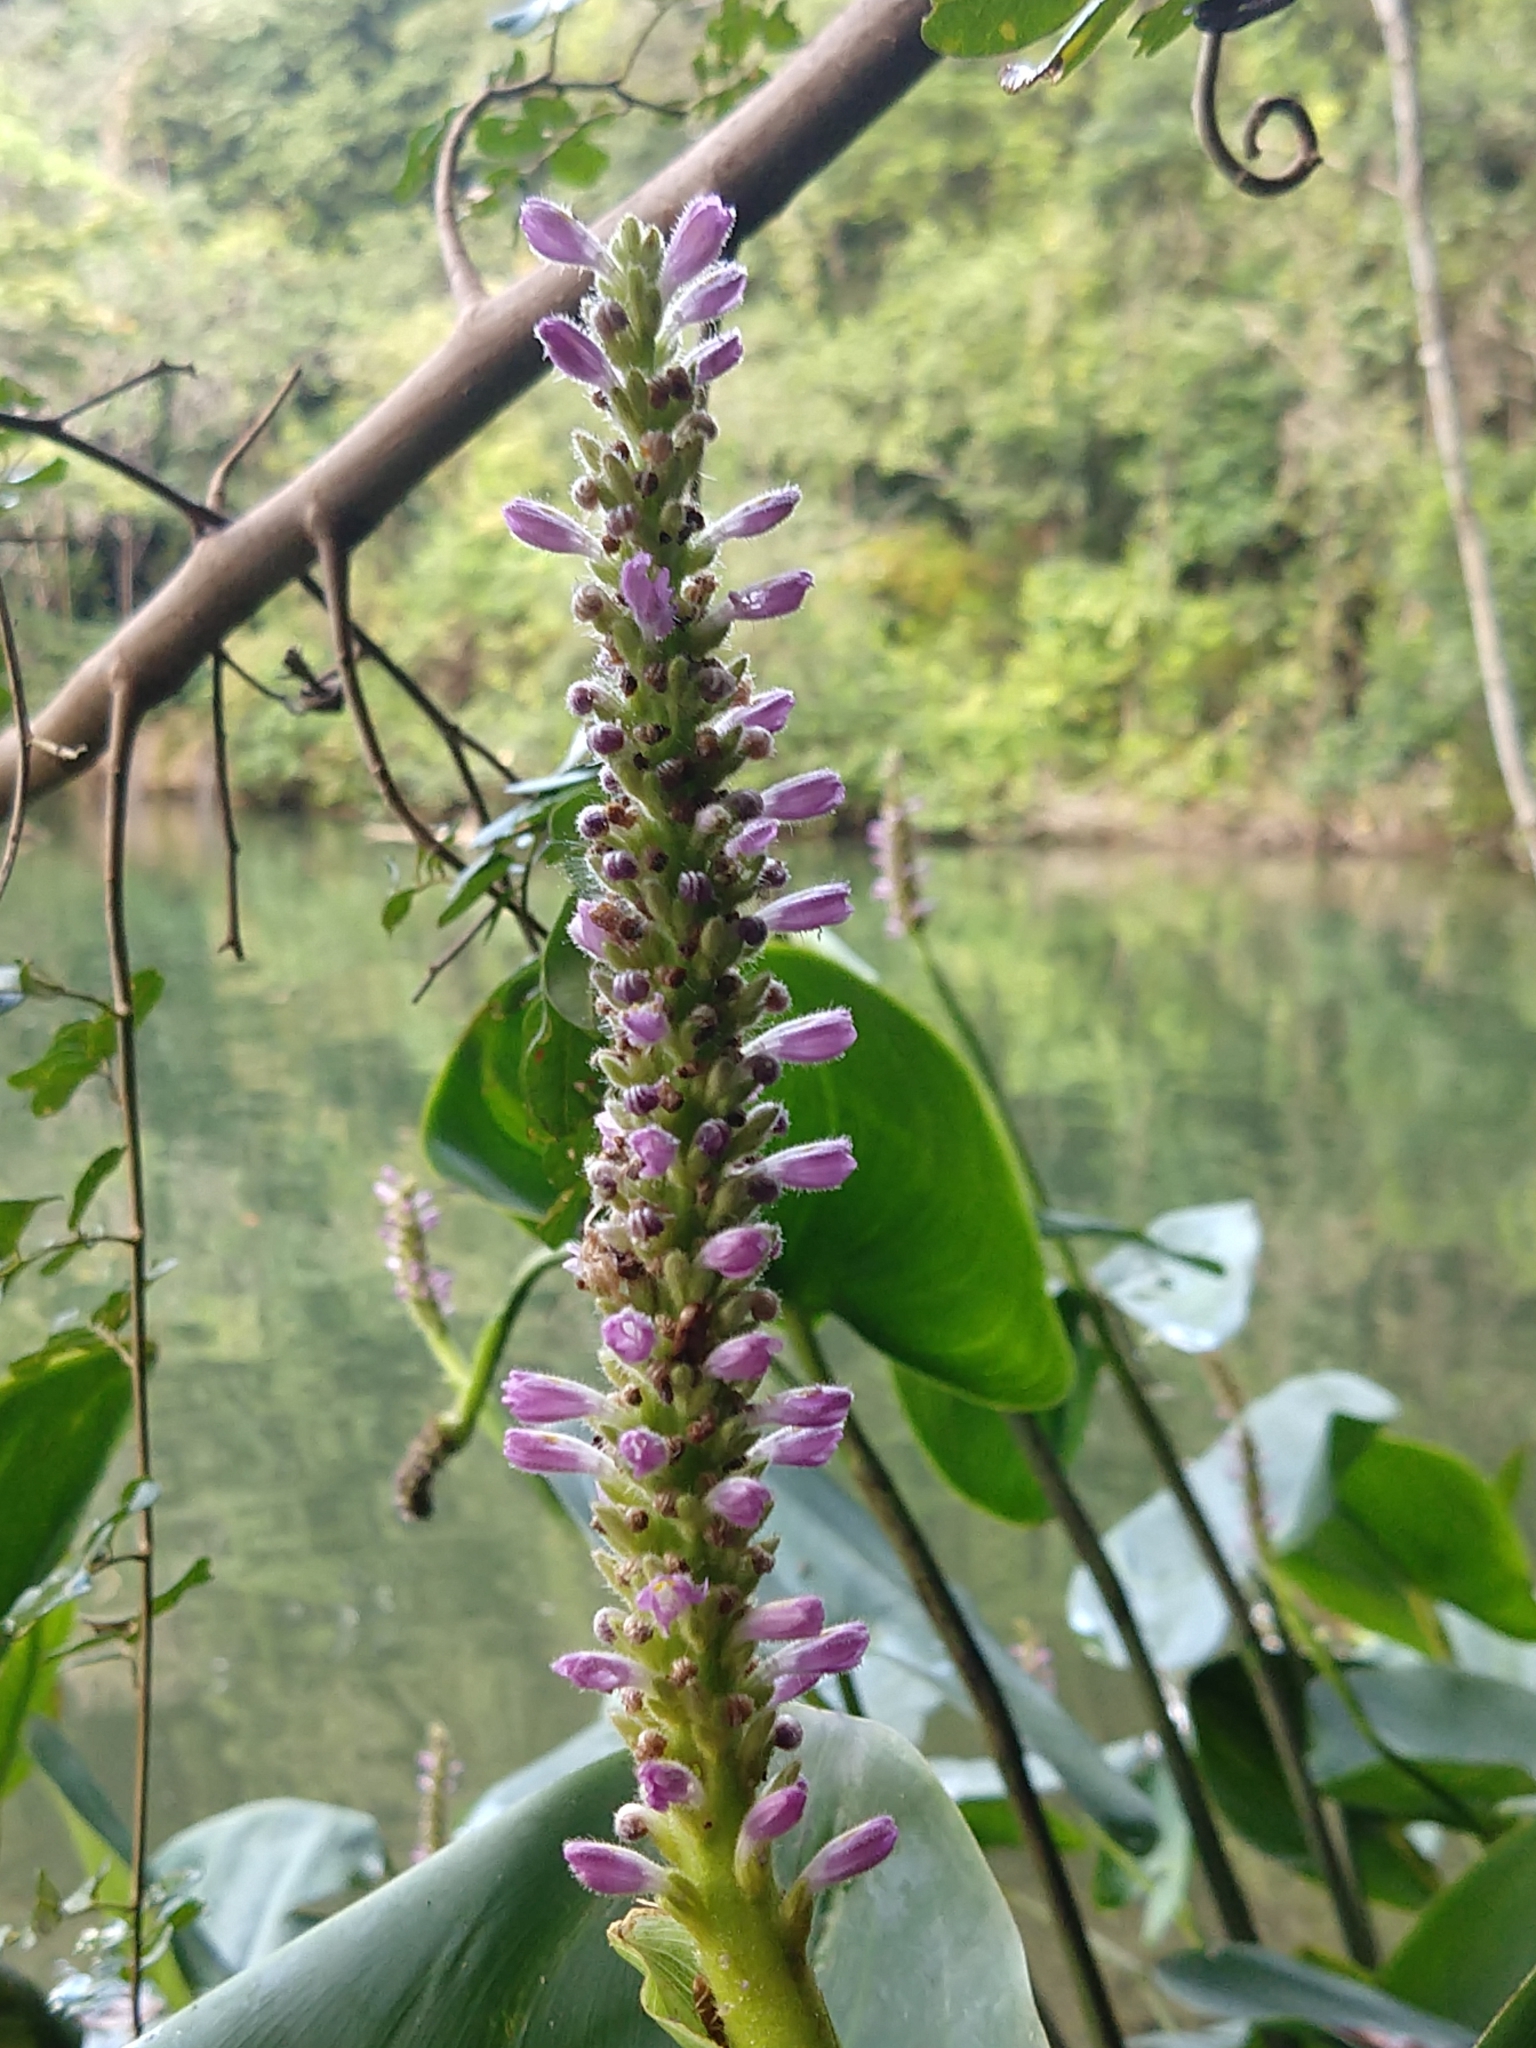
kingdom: Plantae
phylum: Tracheophyta
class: Liliopsida
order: Commelinales
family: Pontederiaceae
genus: Pontederia
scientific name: Pontederia cordata
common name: Pickerelweed
